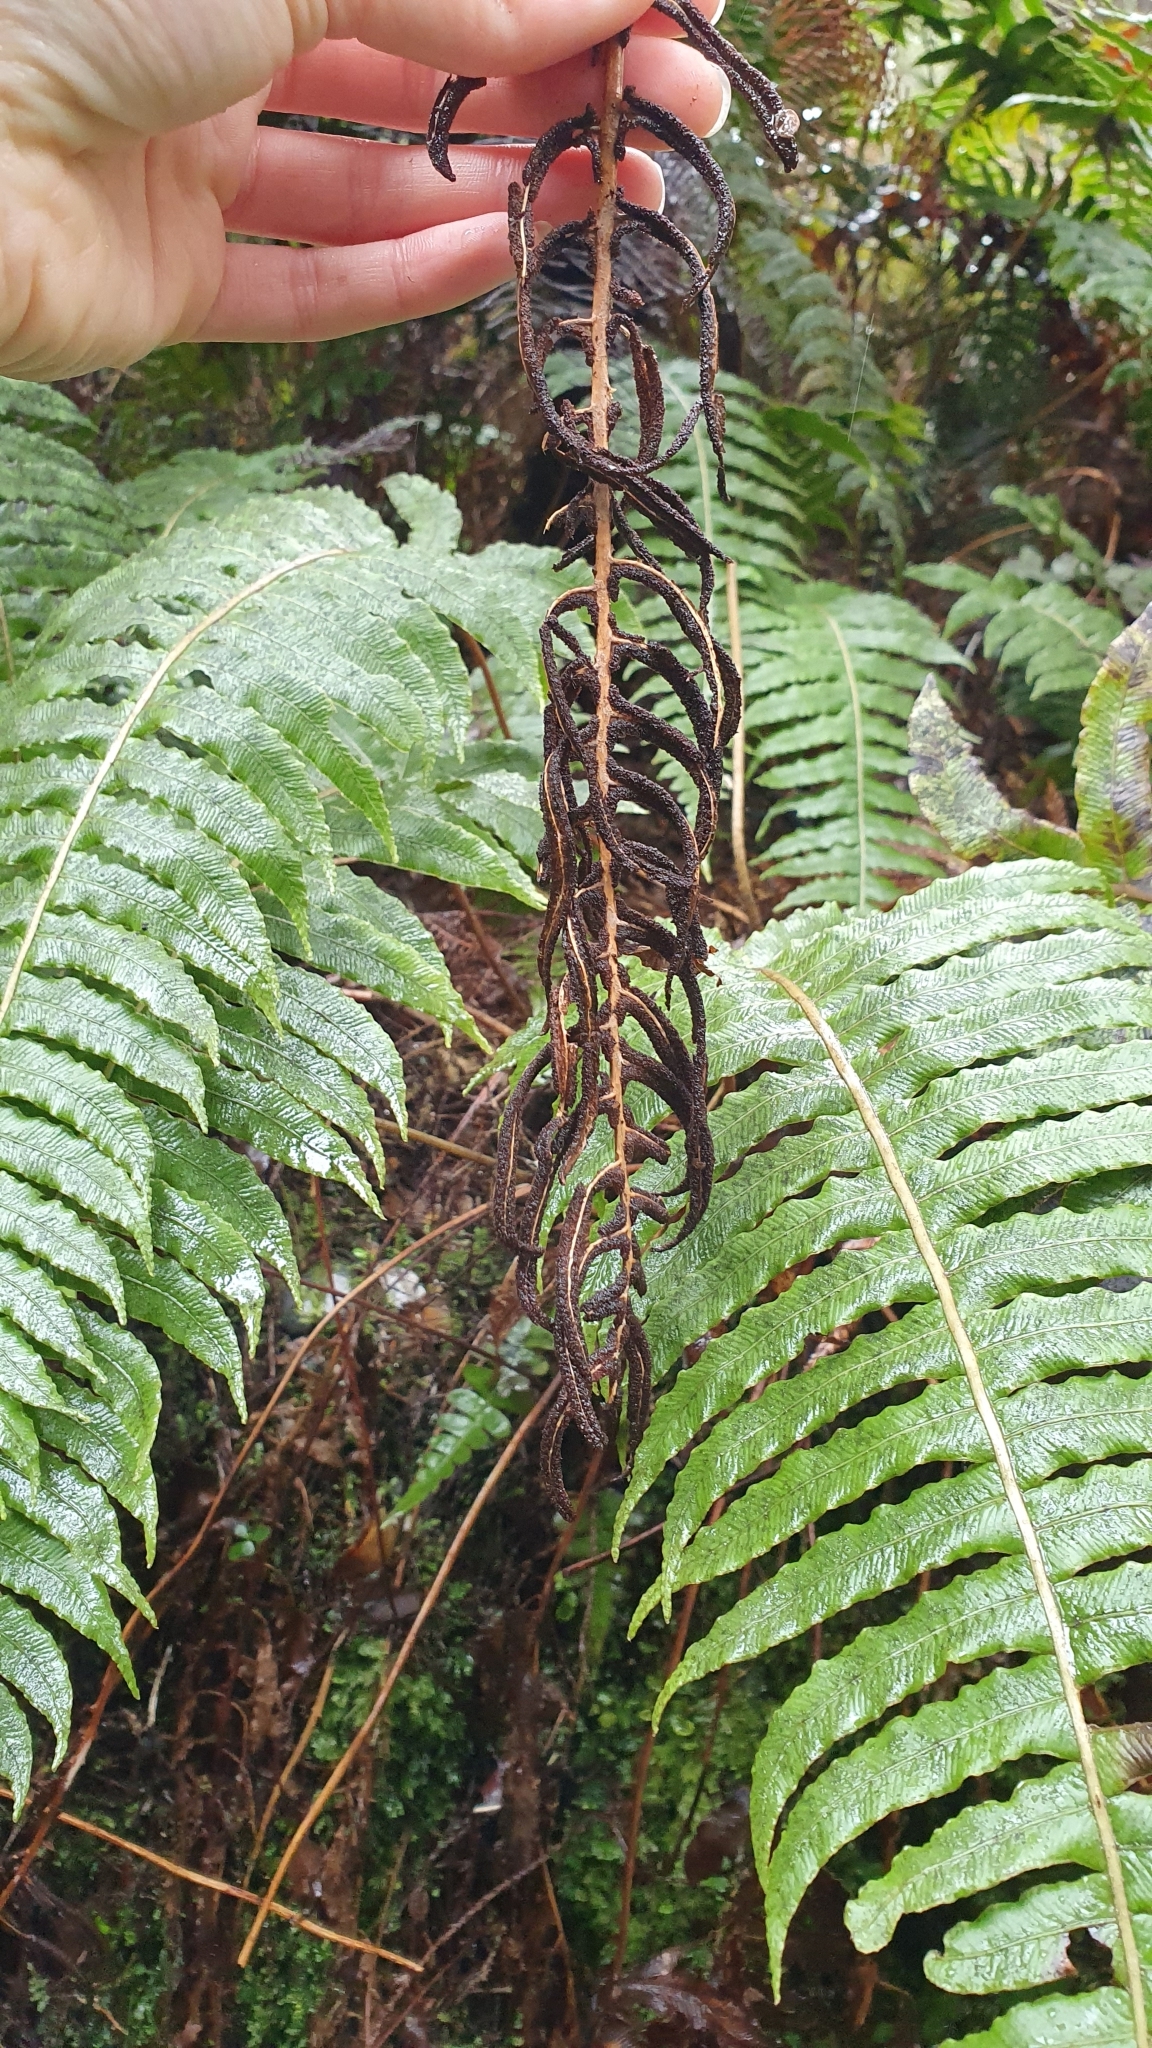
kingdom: Plantae
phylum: Tracheophyta
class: Polypodiopsida
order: Polypodiales
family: Blechnaceae
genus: Cranfillia
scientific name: Cranfillia deltoides
